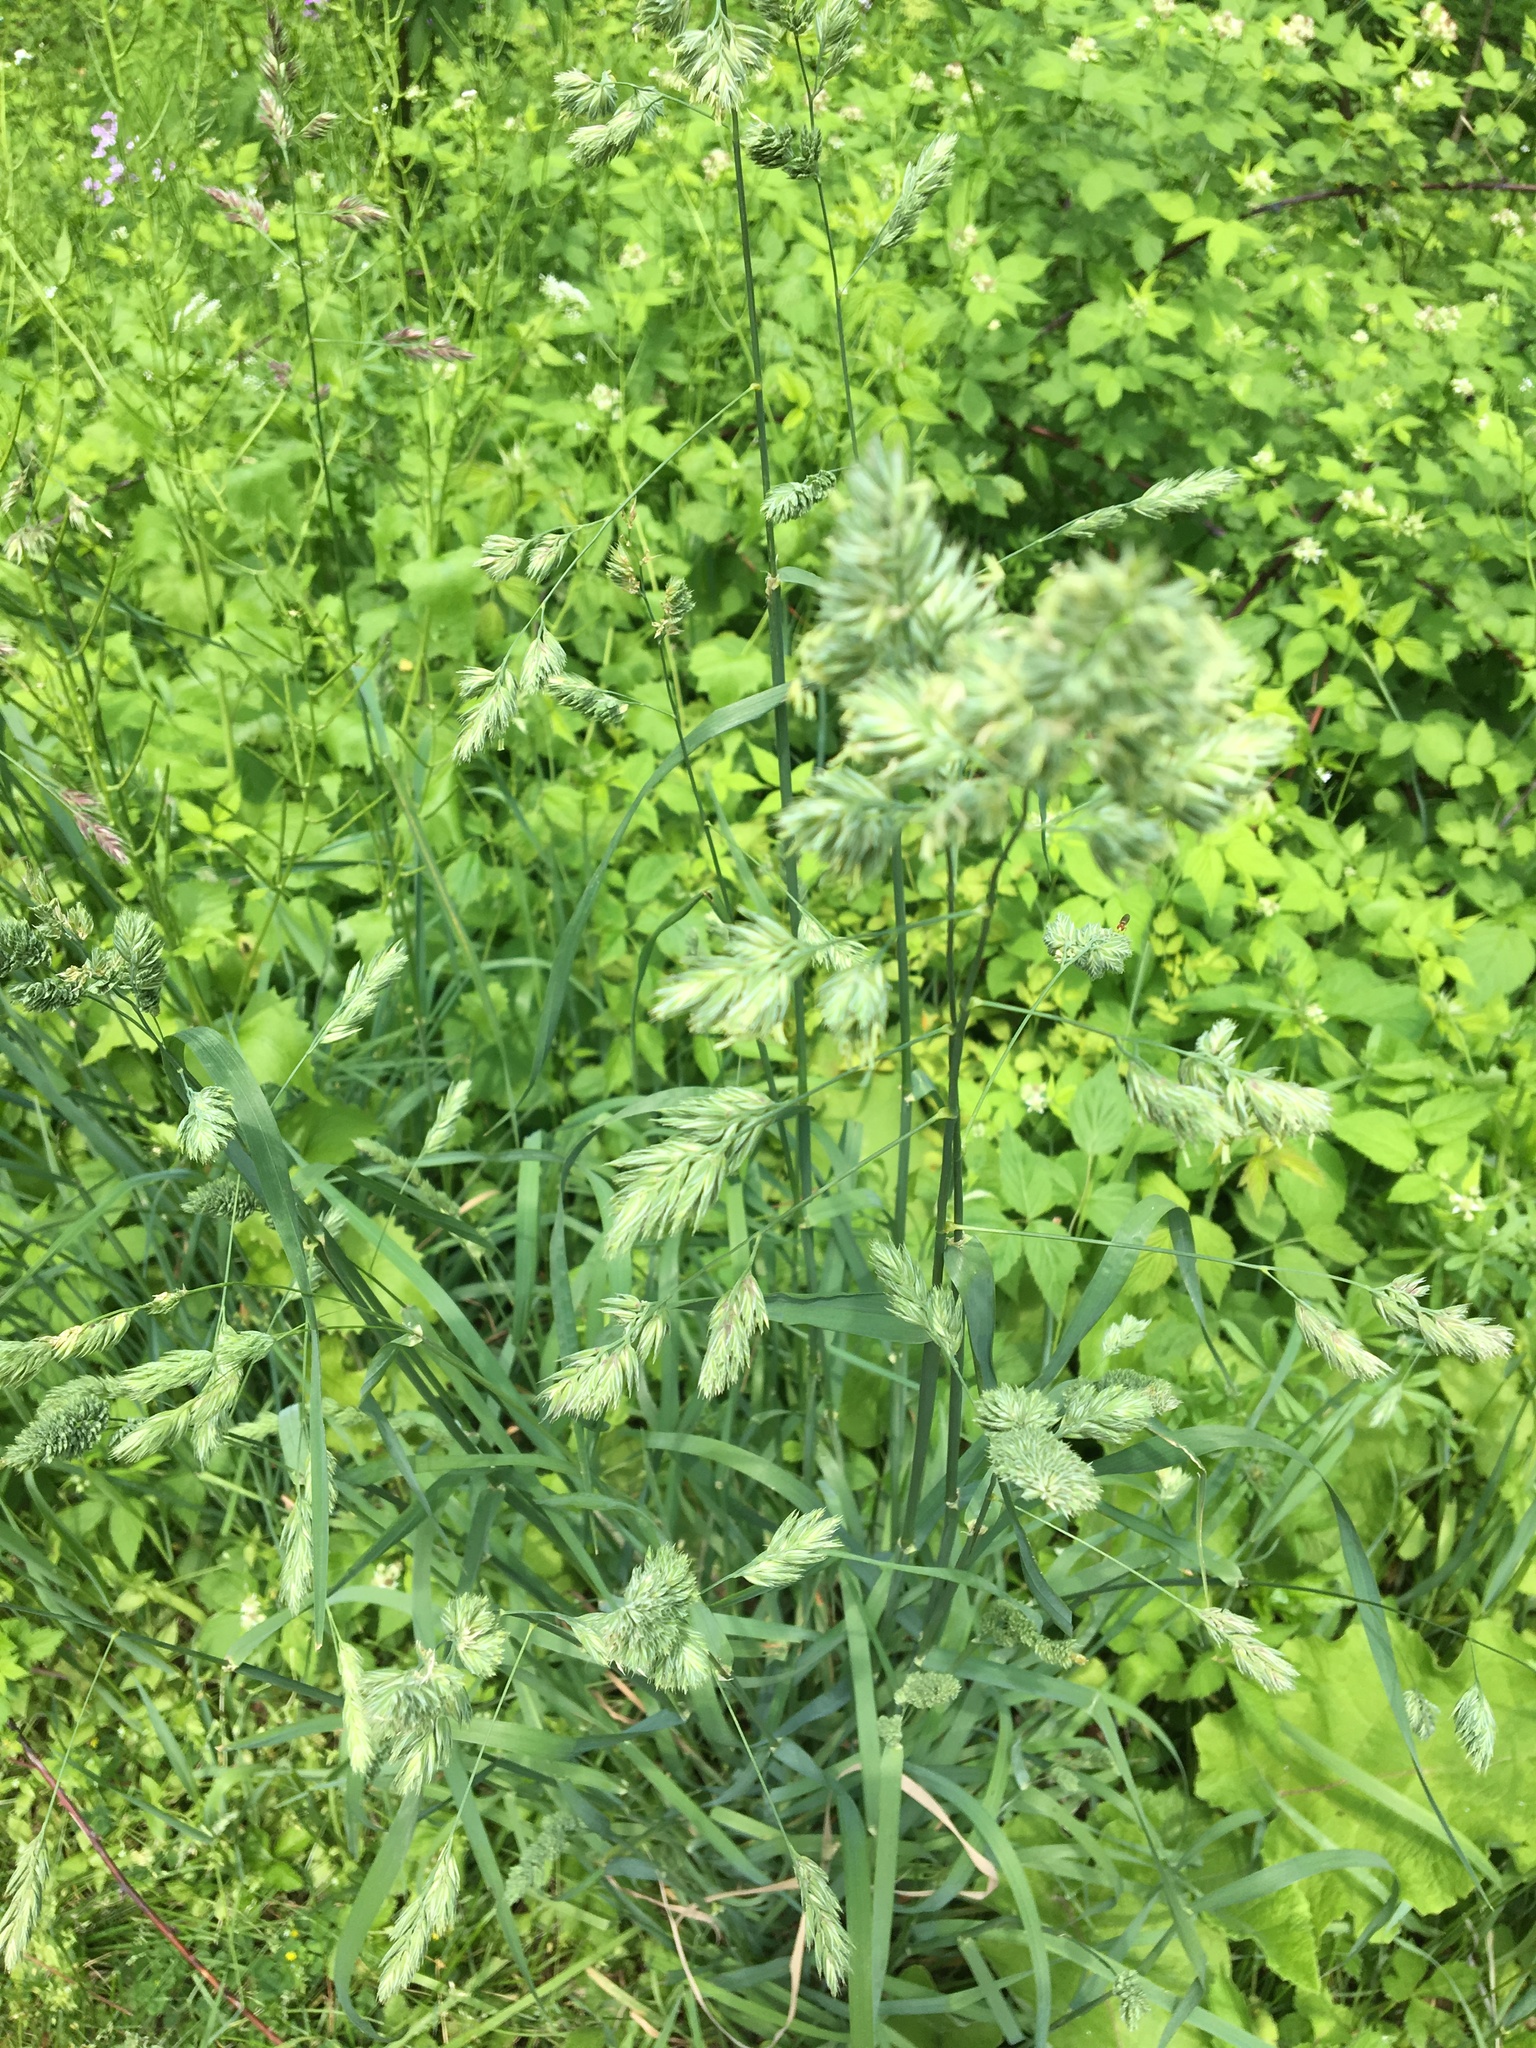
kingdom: Plantae
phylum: Tracheophyta
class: Liliopsida
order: Poales
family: Poaceae
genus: Dactylis
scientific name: Dactylis glomerata
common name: Orchardgrass
